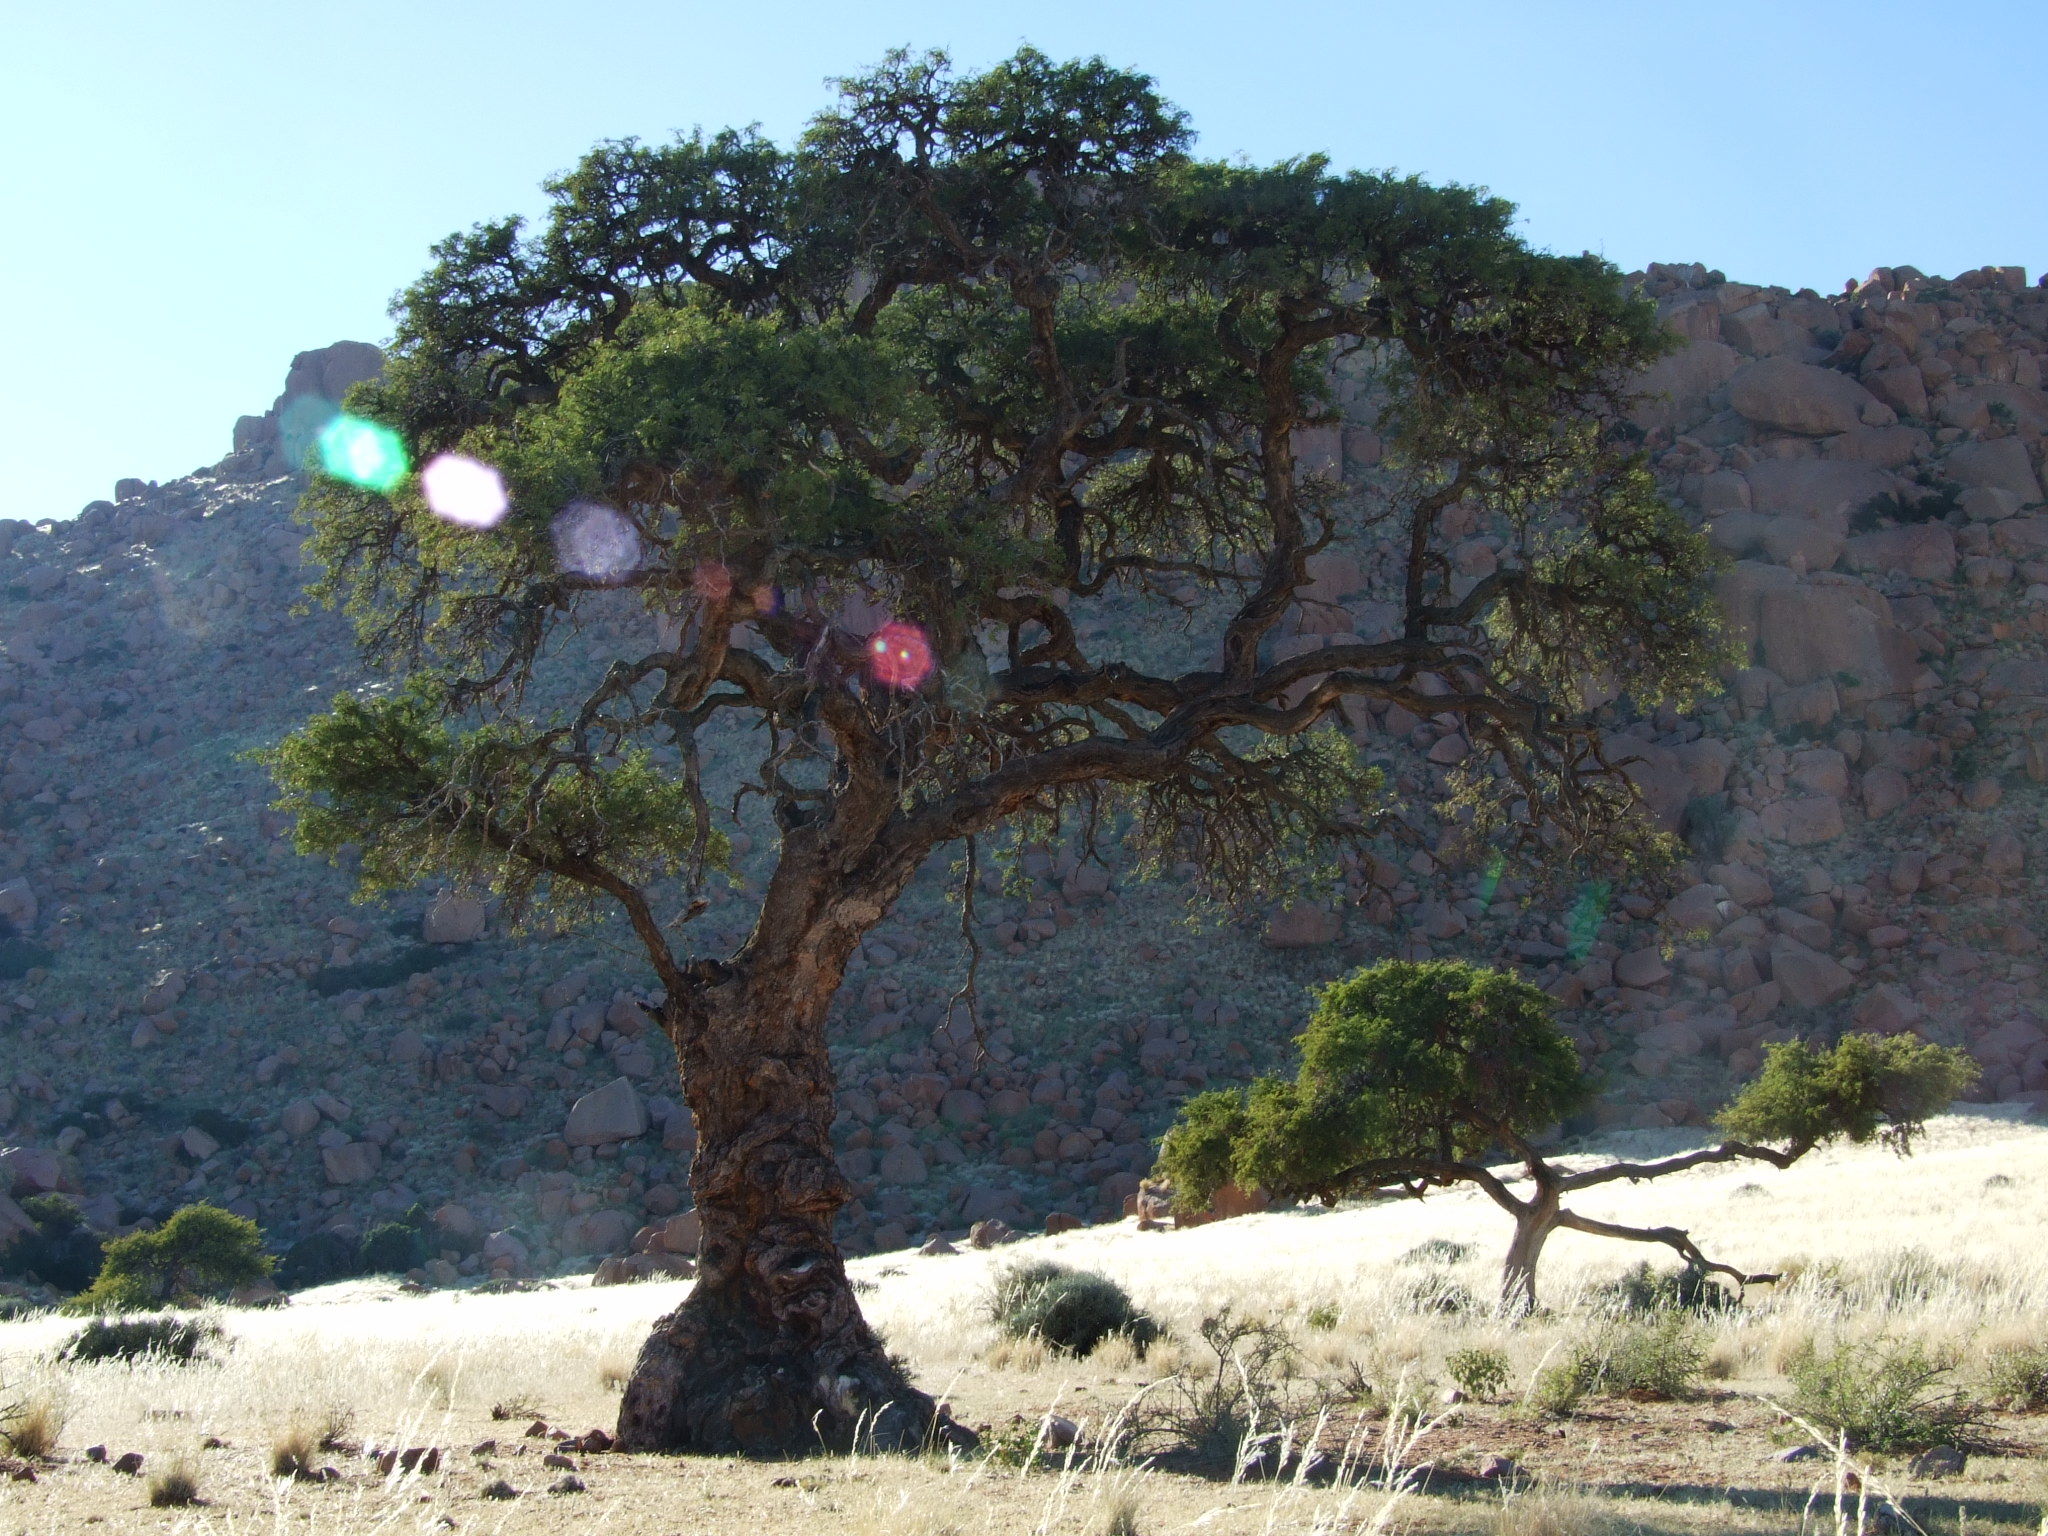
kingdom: Plantae
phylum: Tracheophyta
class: Magnoliopsida
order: Fabales
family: Fabaceae
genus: Vachellia
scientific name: Vachellia erioloba
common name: Camel thorn
